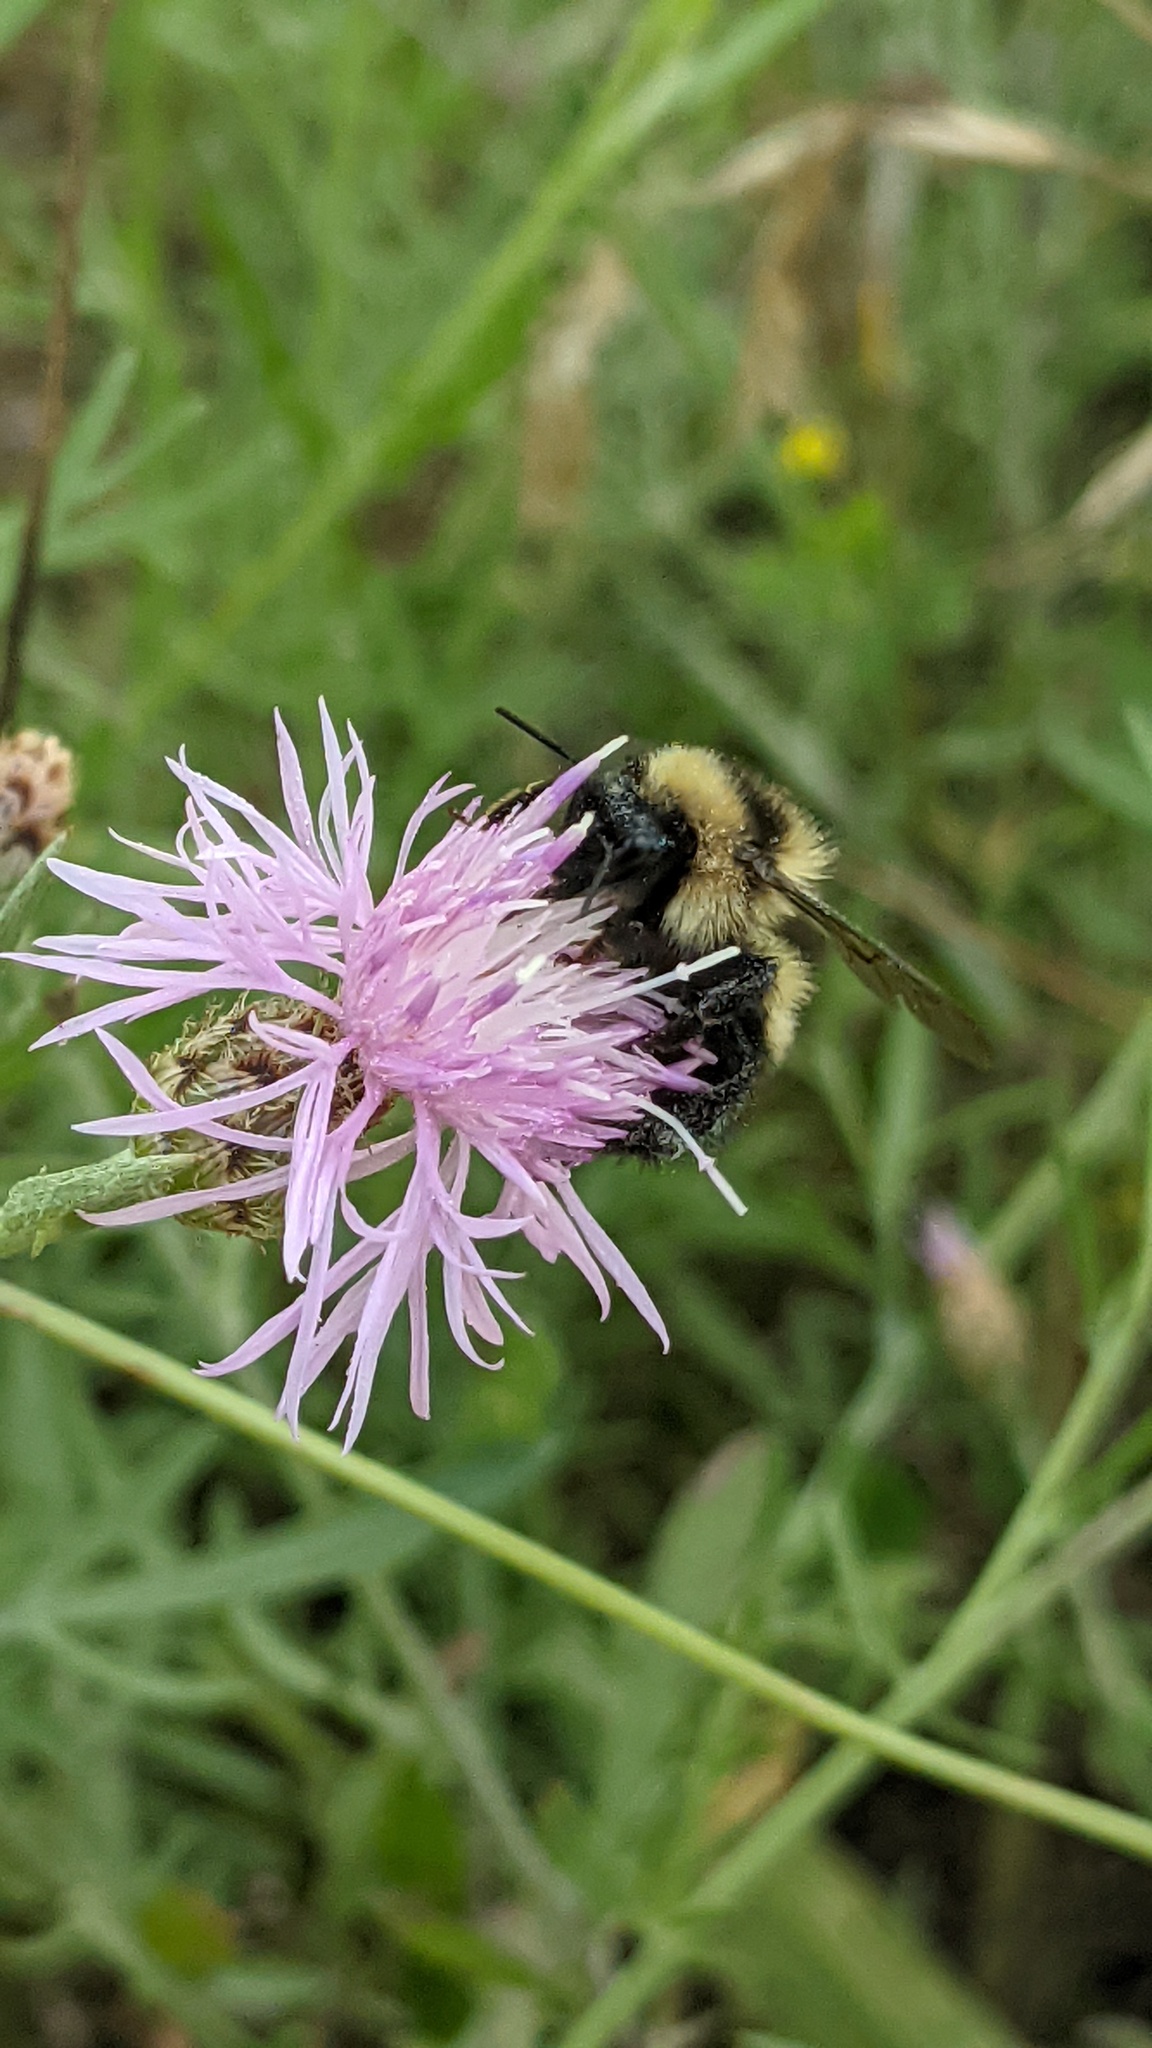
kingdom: Animalia
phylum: Arthropoda
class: Insecta
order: Hymenoptera
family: Apidae
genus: Bombus
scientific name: Bombus rufocinctus
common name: Red-belted bumble bee
